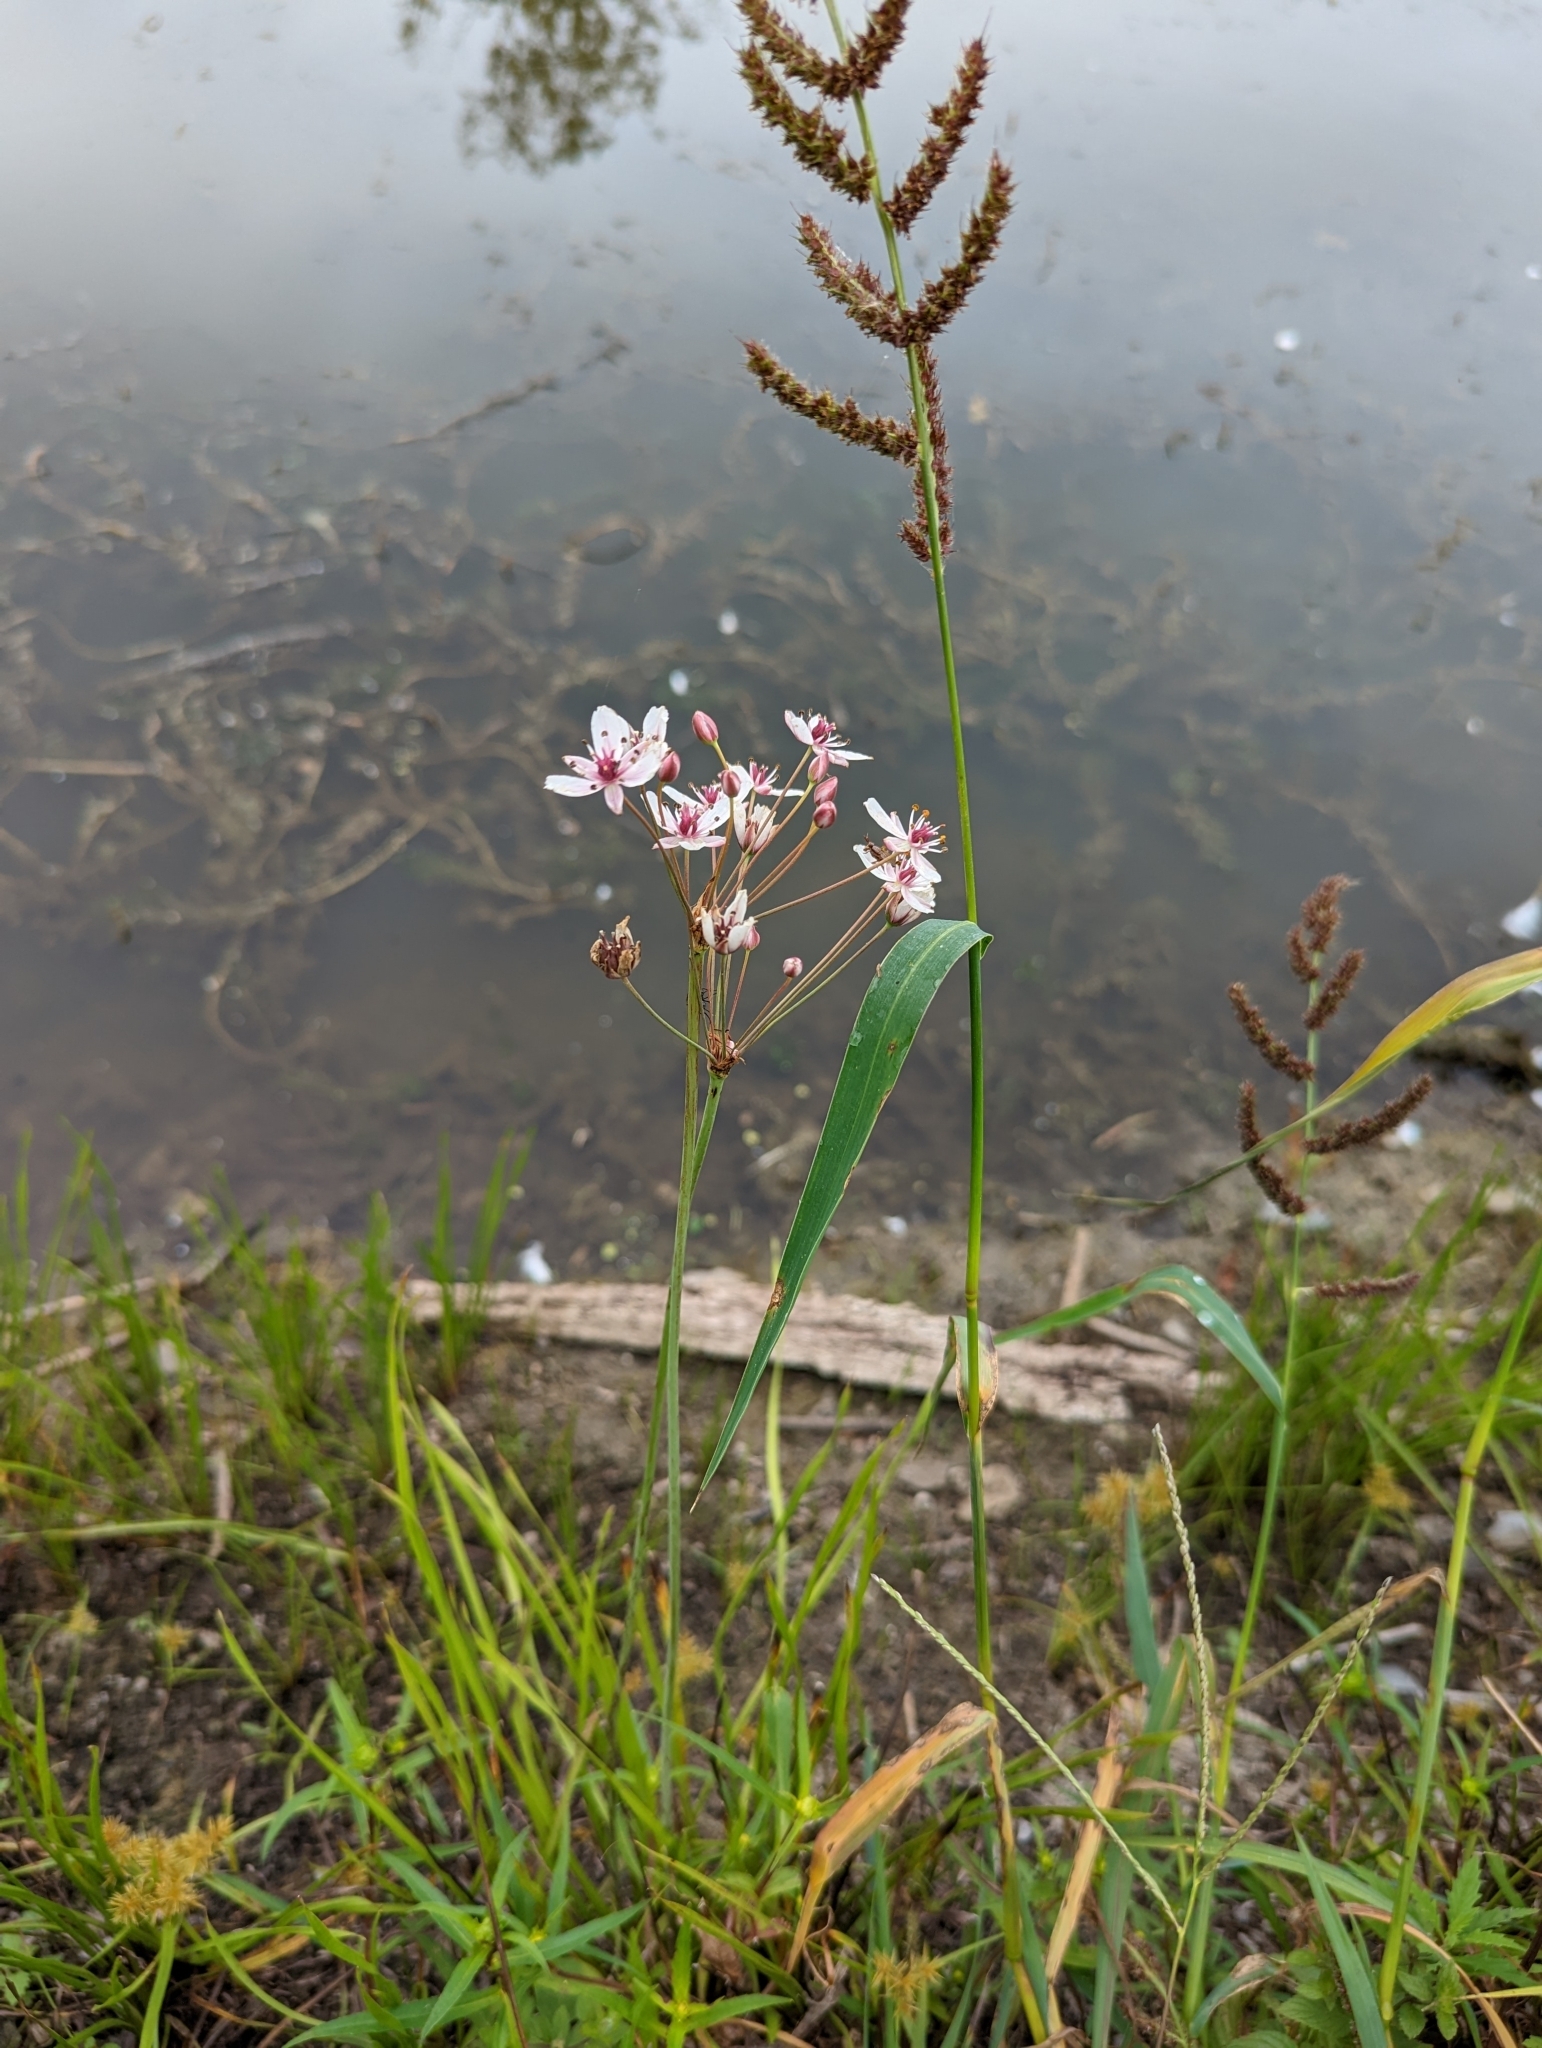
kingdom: Plantae
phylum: Tracheophyta
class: Liliopsida
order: Alismatales
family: Butomaceae
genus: Butomus
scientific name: Butomus umbellatus
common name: Flowering-rush
